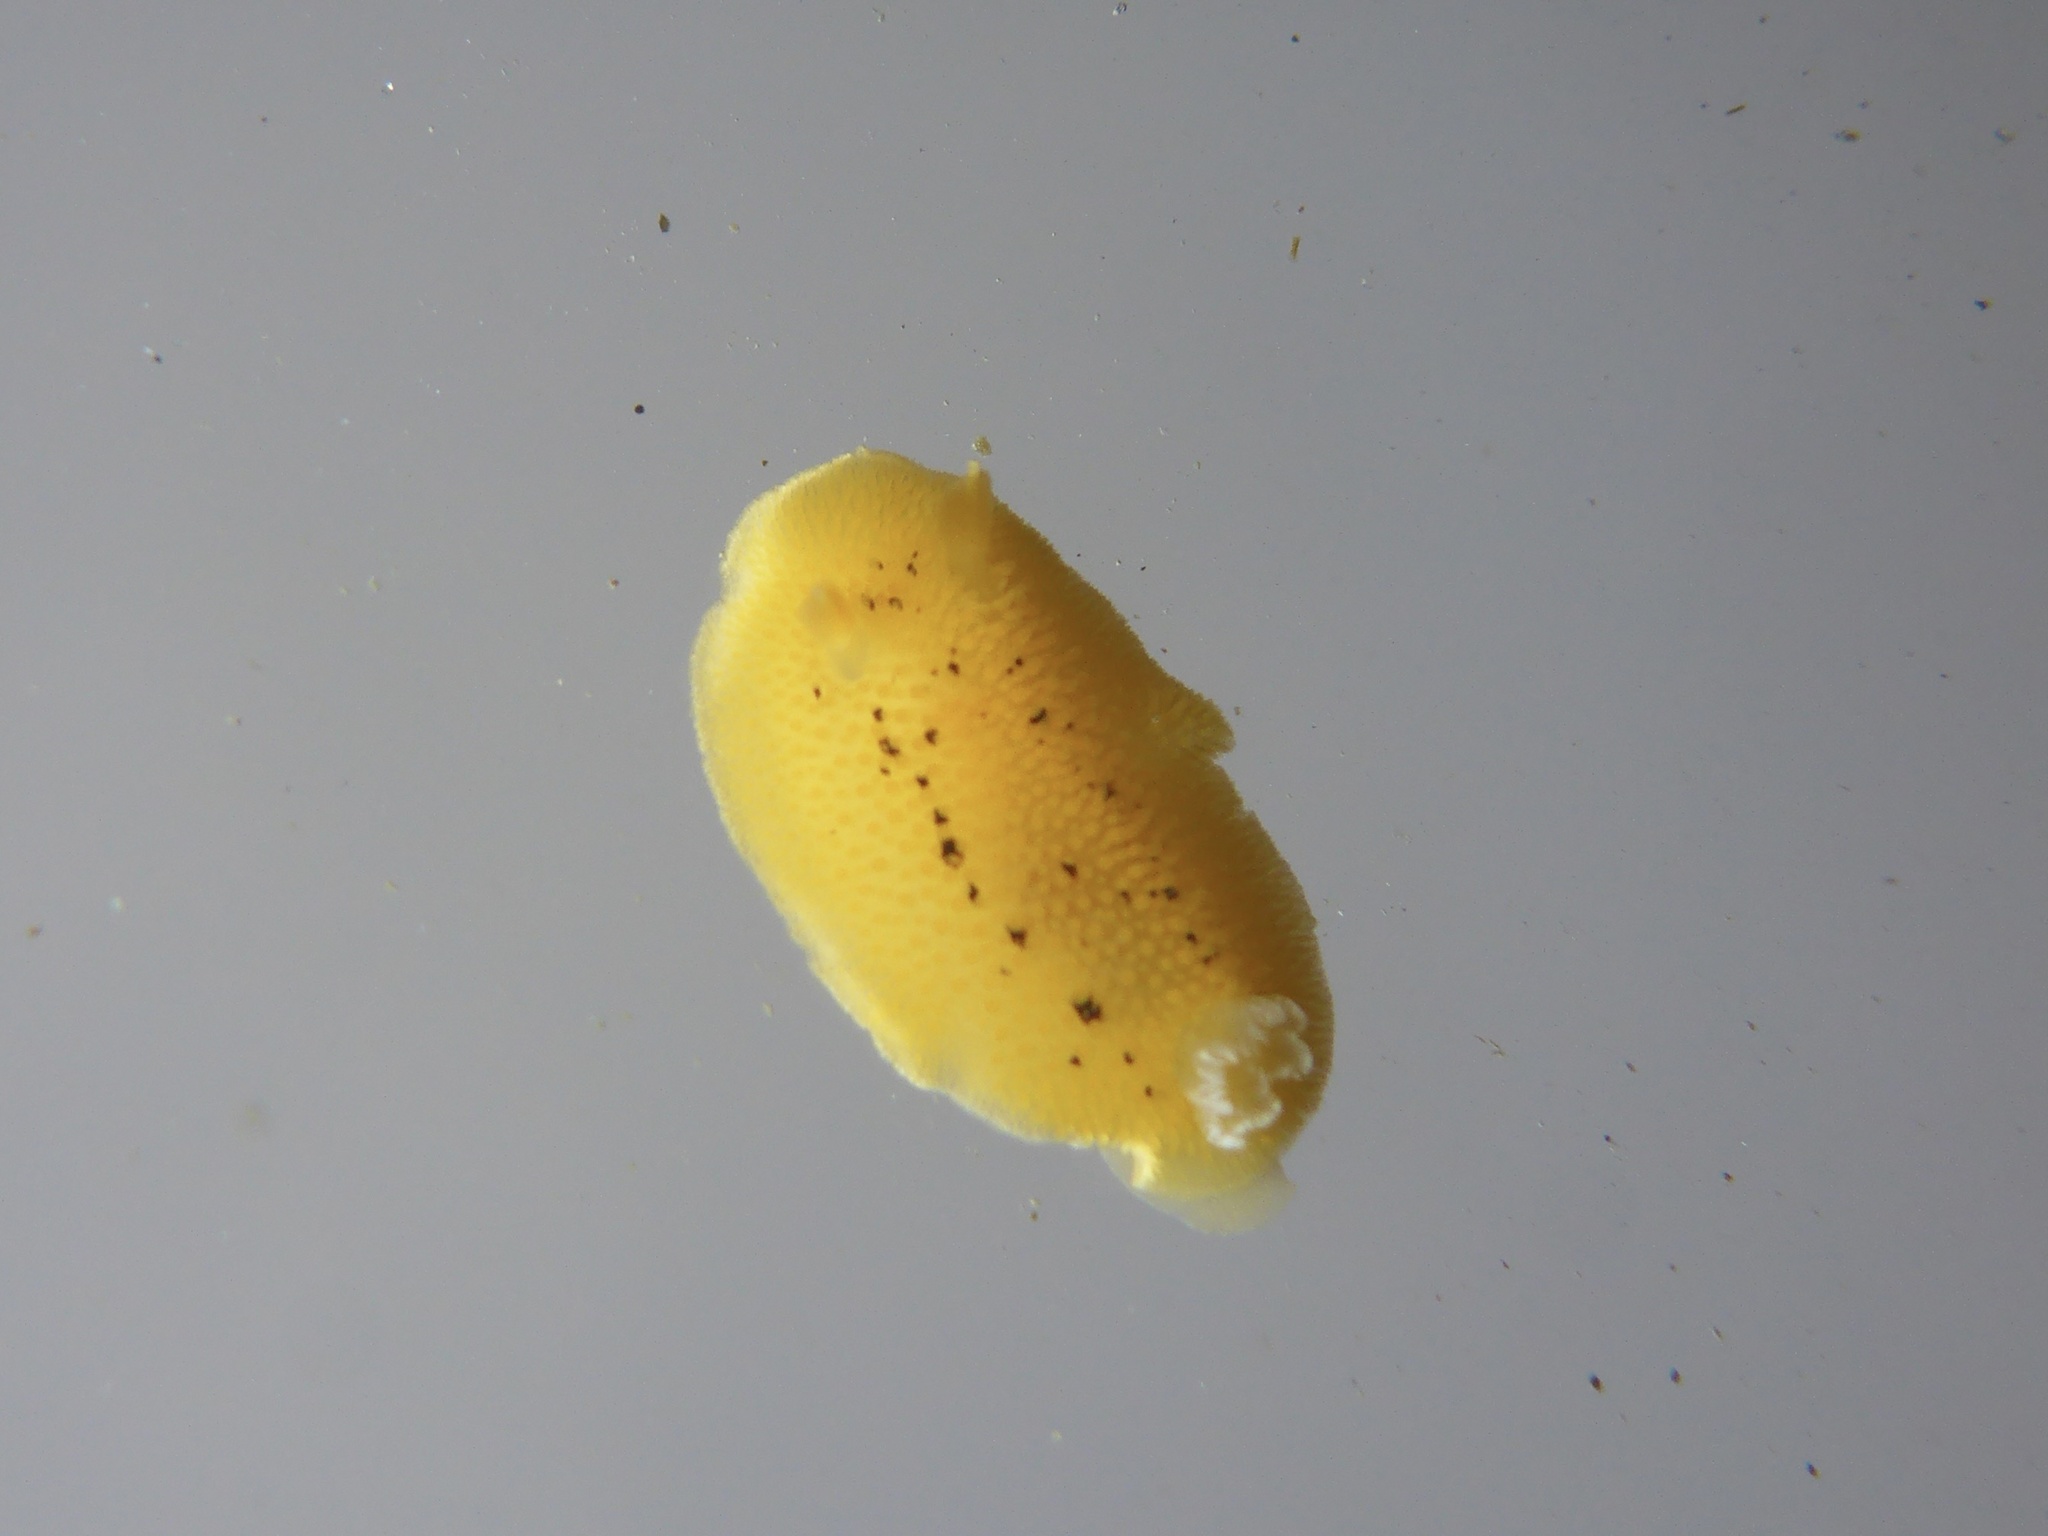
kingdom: Animalia
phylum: Mollusca
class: Gastropoda
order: Nudibranchia
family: Discodorididae
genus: Peltodoris
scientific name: Peltodoris nobilis
